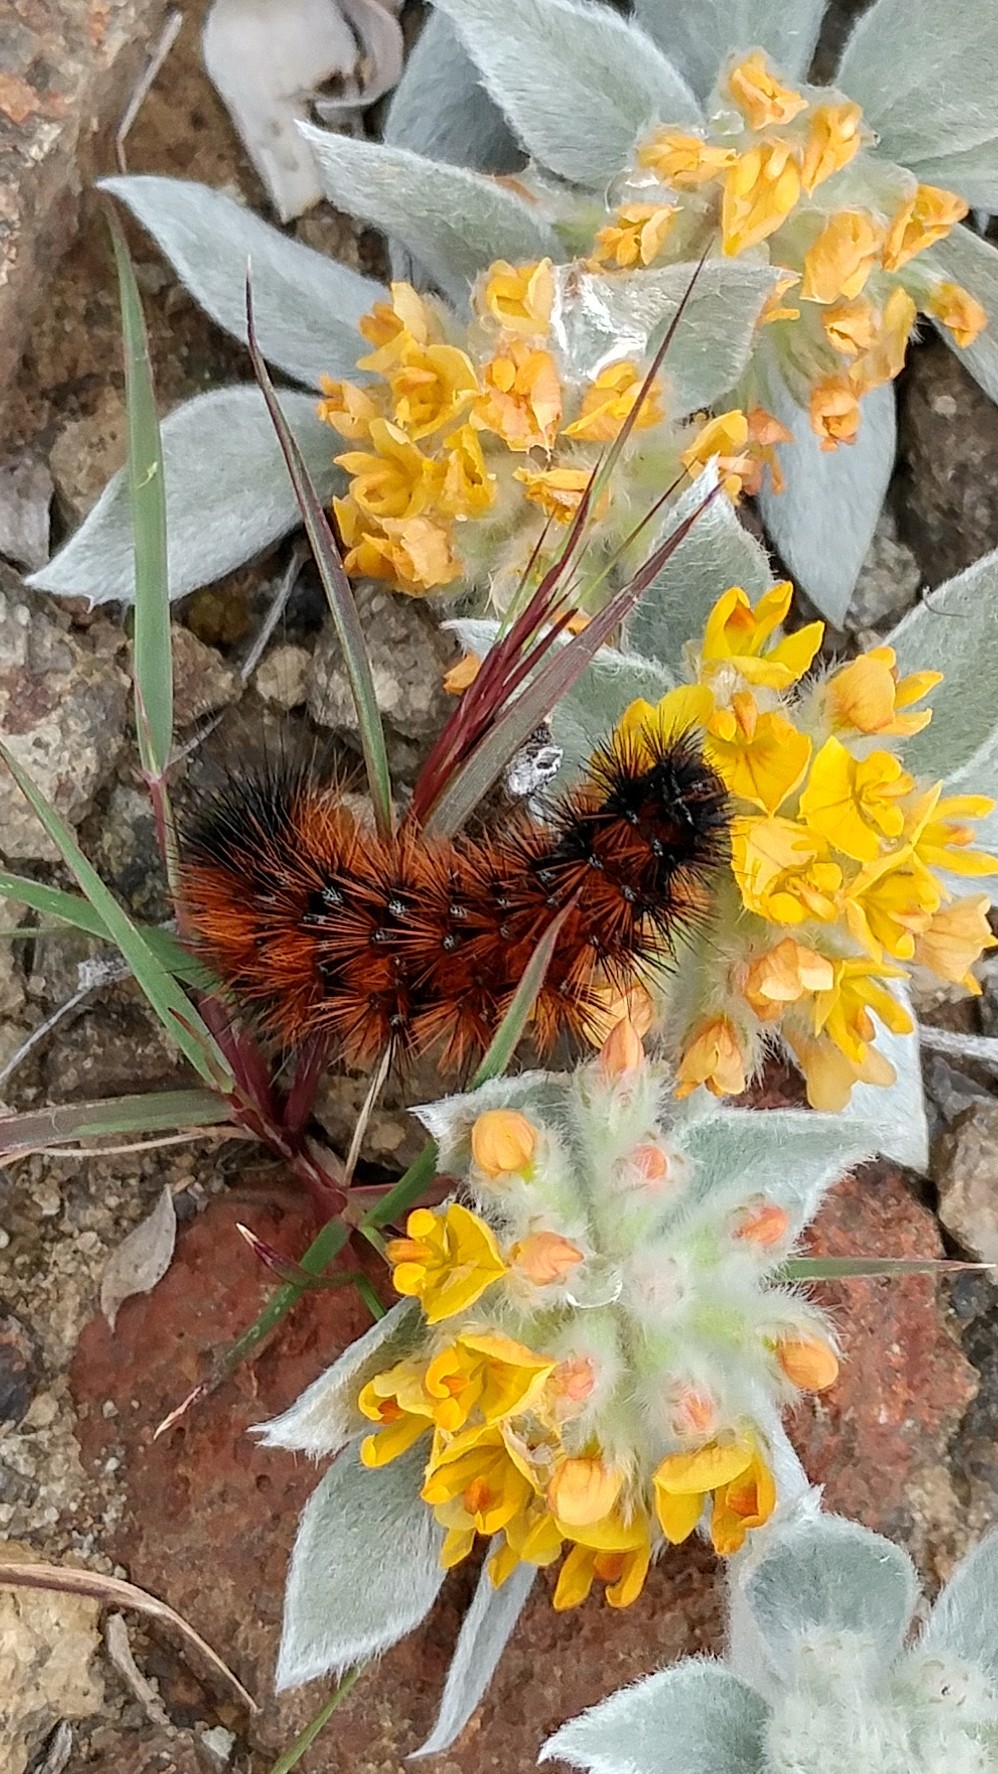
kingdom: Plantae
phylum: Tracheophyta
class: Magnoliopsida
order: Fabales
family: Fabaceae
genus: Acmispon
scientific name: Acmispon argophyllus
